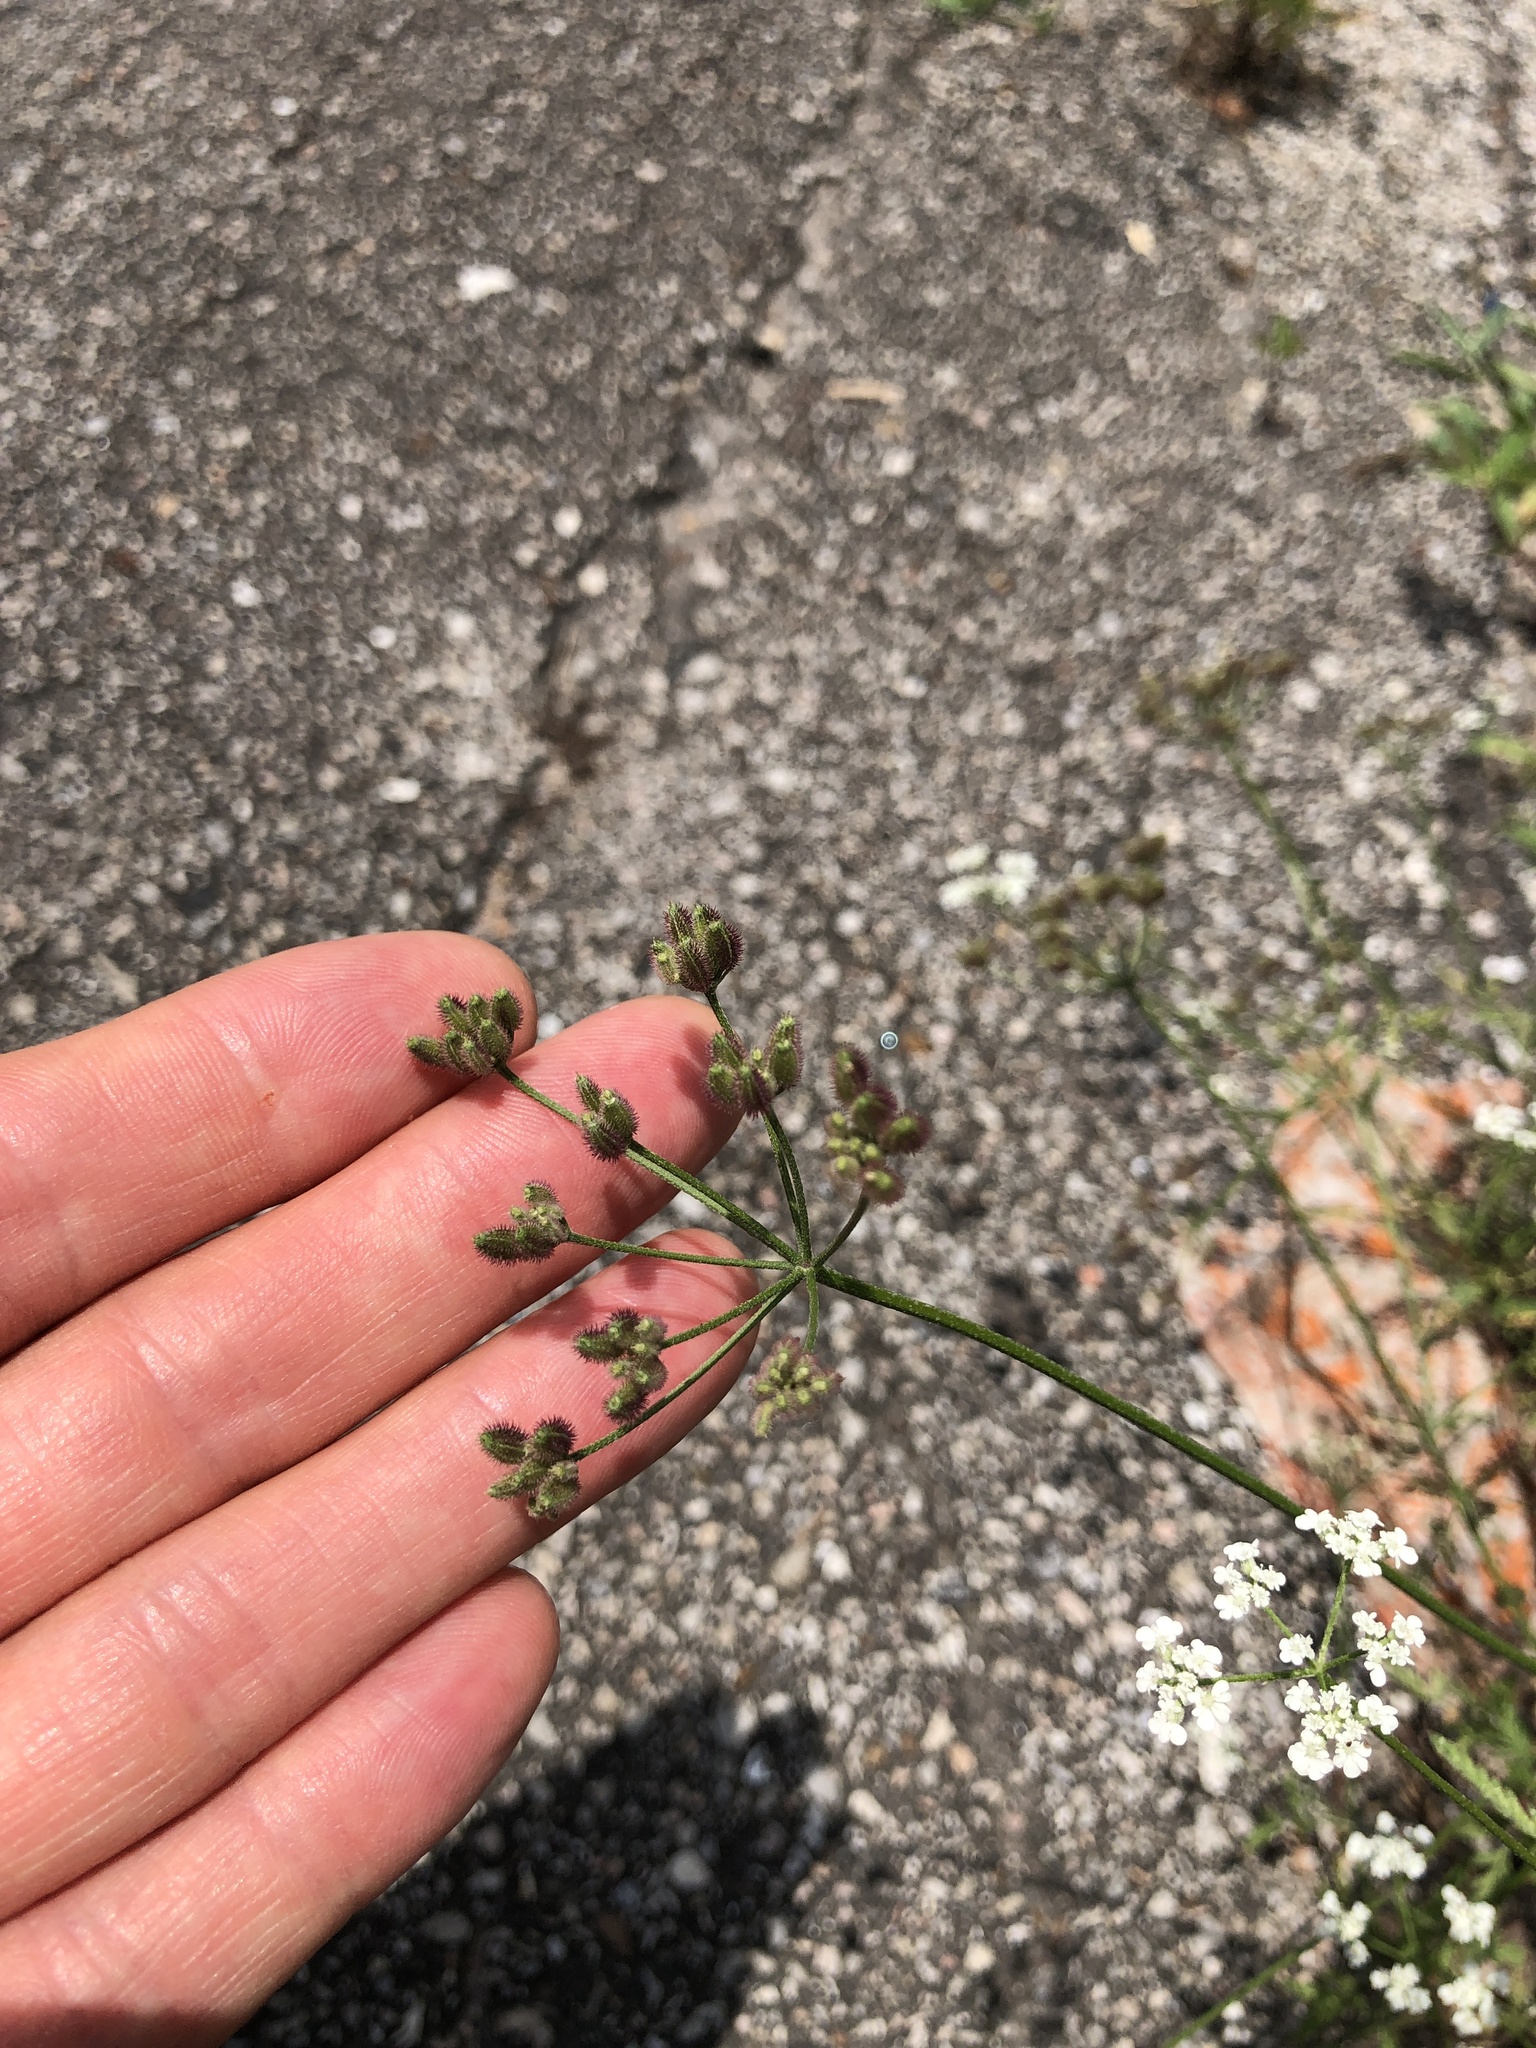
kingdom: Plantae
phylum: Tracheophyta
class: Magnoliopsida
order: Apiales
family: Apiaceae
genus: Torilis
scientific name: Torilis arvensis
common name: Spreading hedge-parsley
